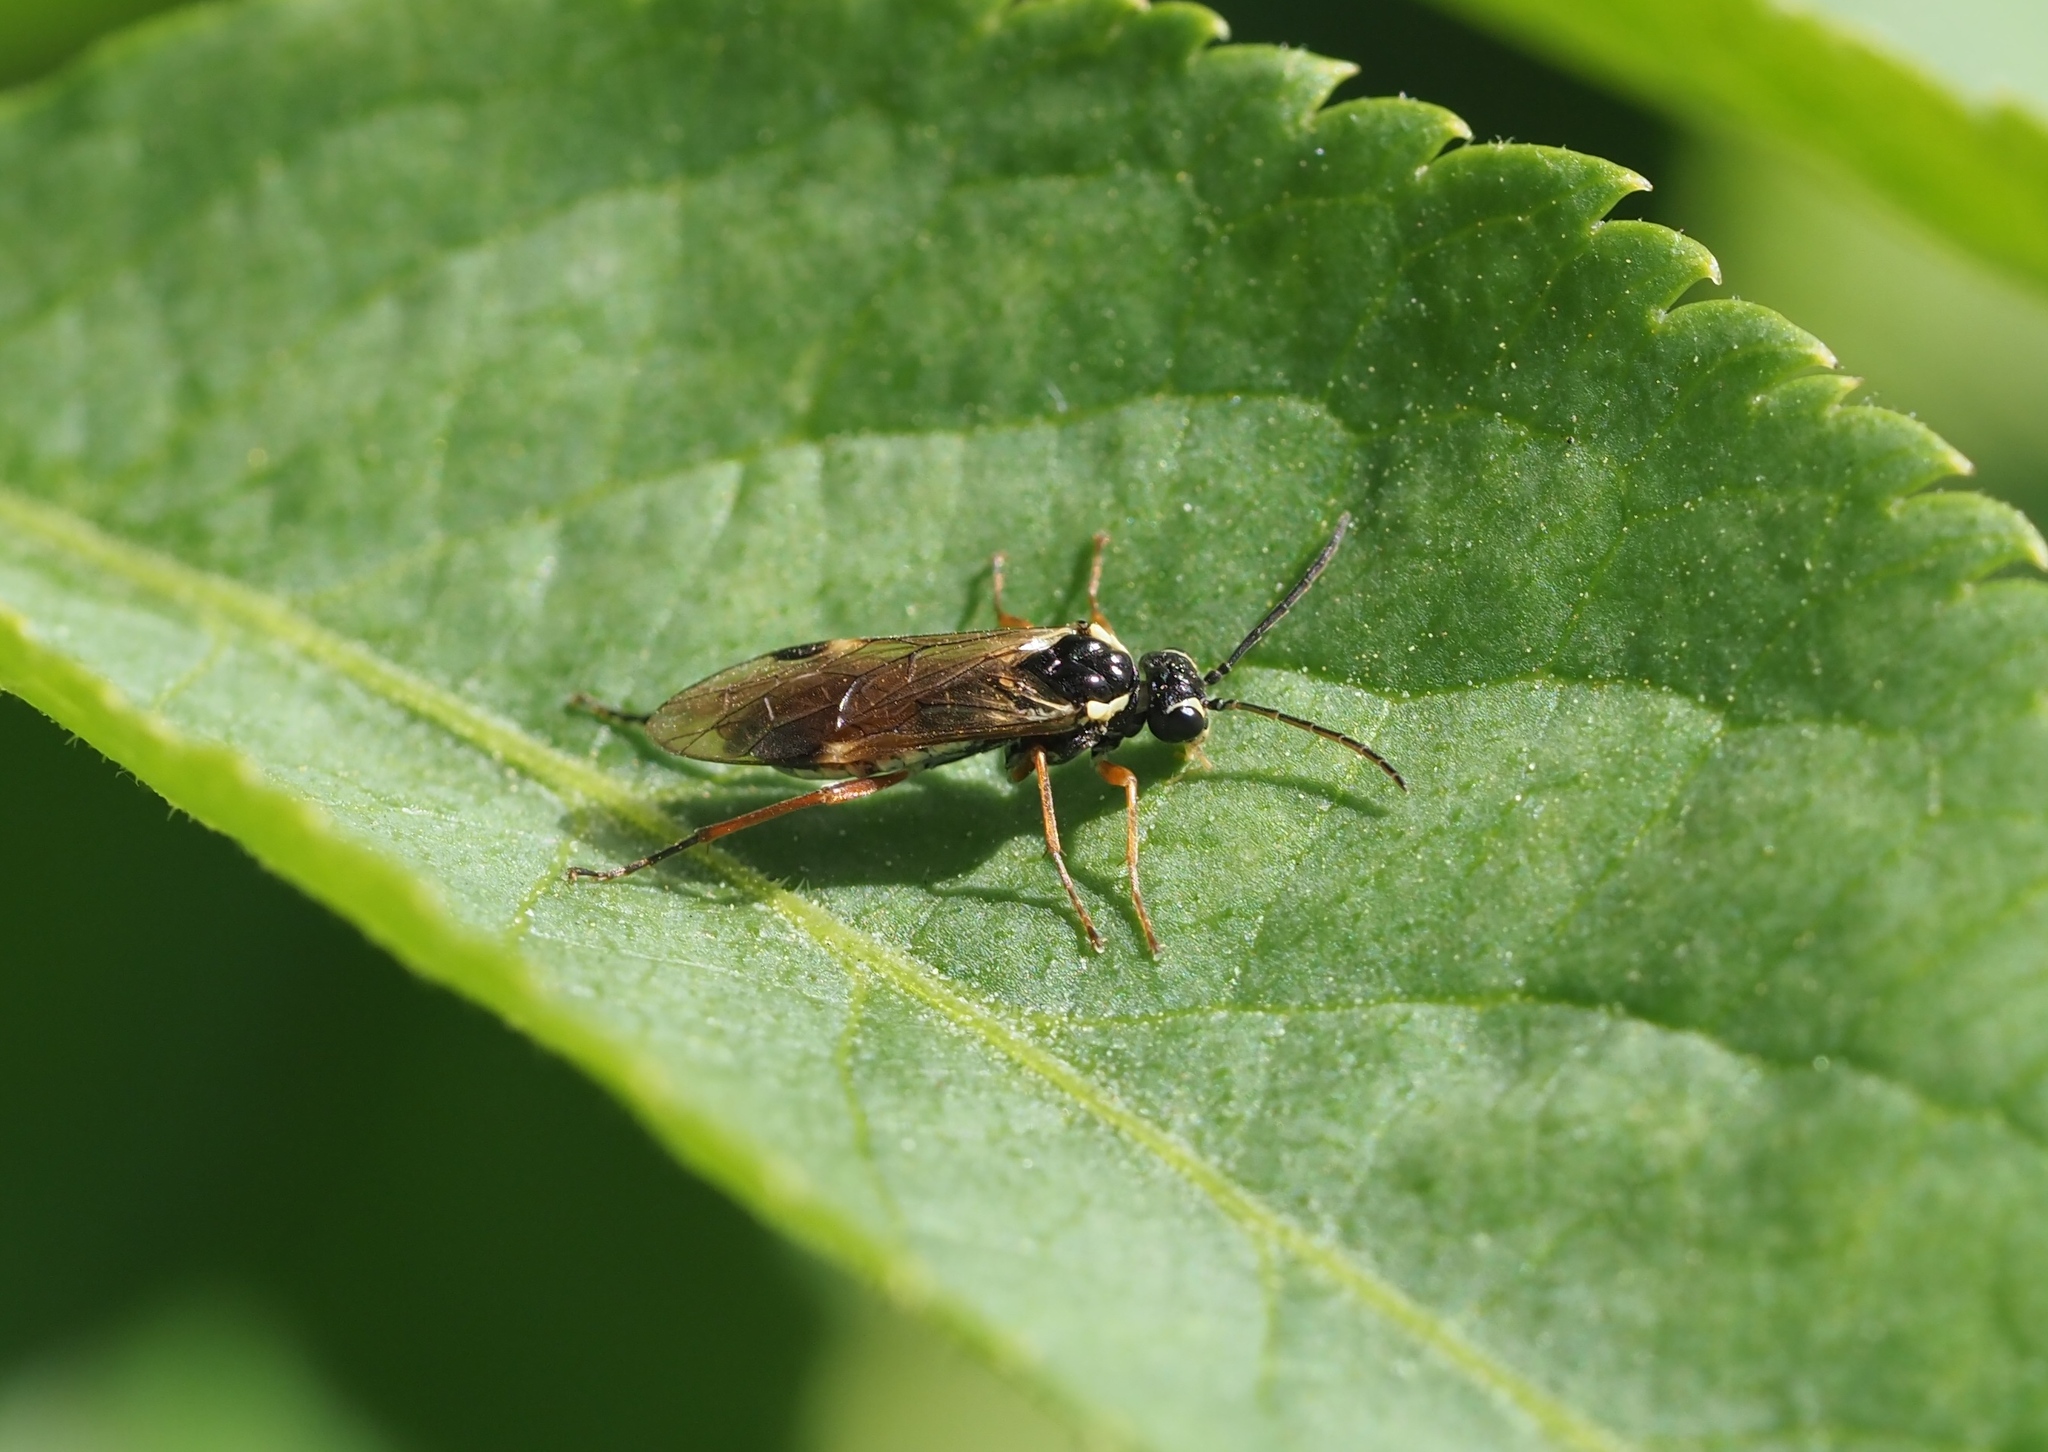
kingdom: Animalia
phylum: Arthropoda
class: Insecta
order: Hymenoptera
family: Tenthredinidae
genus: Aglaostigma
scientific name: Aglaostigma fulvipes
